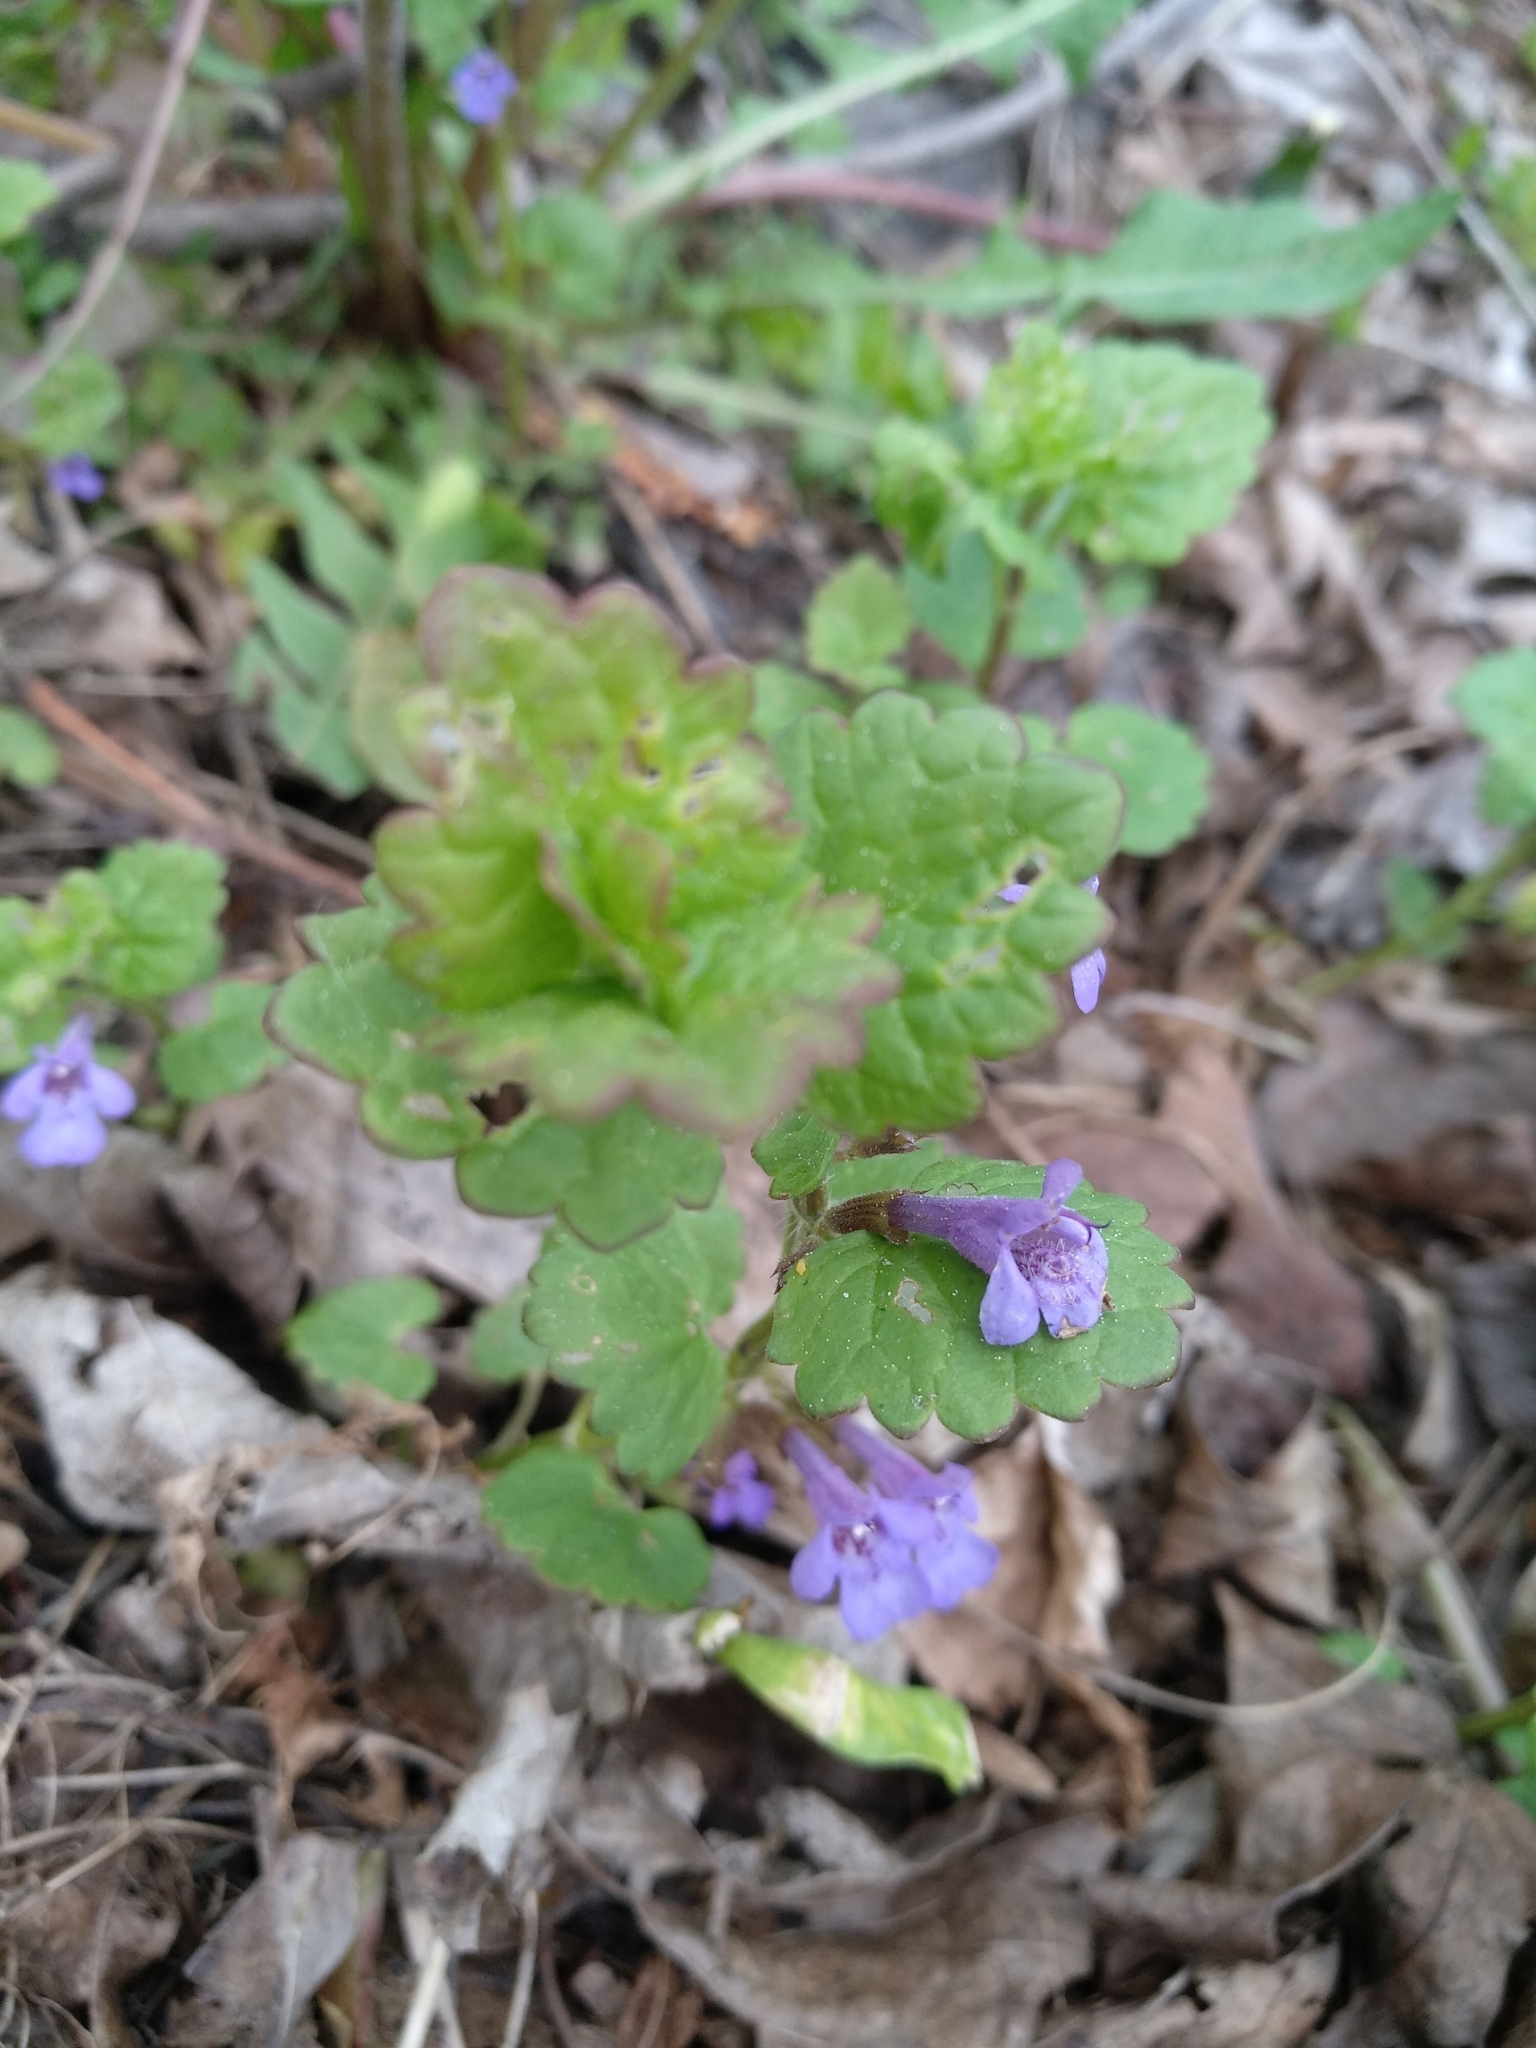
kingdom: Plantae
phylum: Tracheophyta
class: Magnoliopsida
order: Lamiales
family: Lamiaceae
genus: Glechoma
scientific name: Glechoma hederacea
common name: Ground ivy
